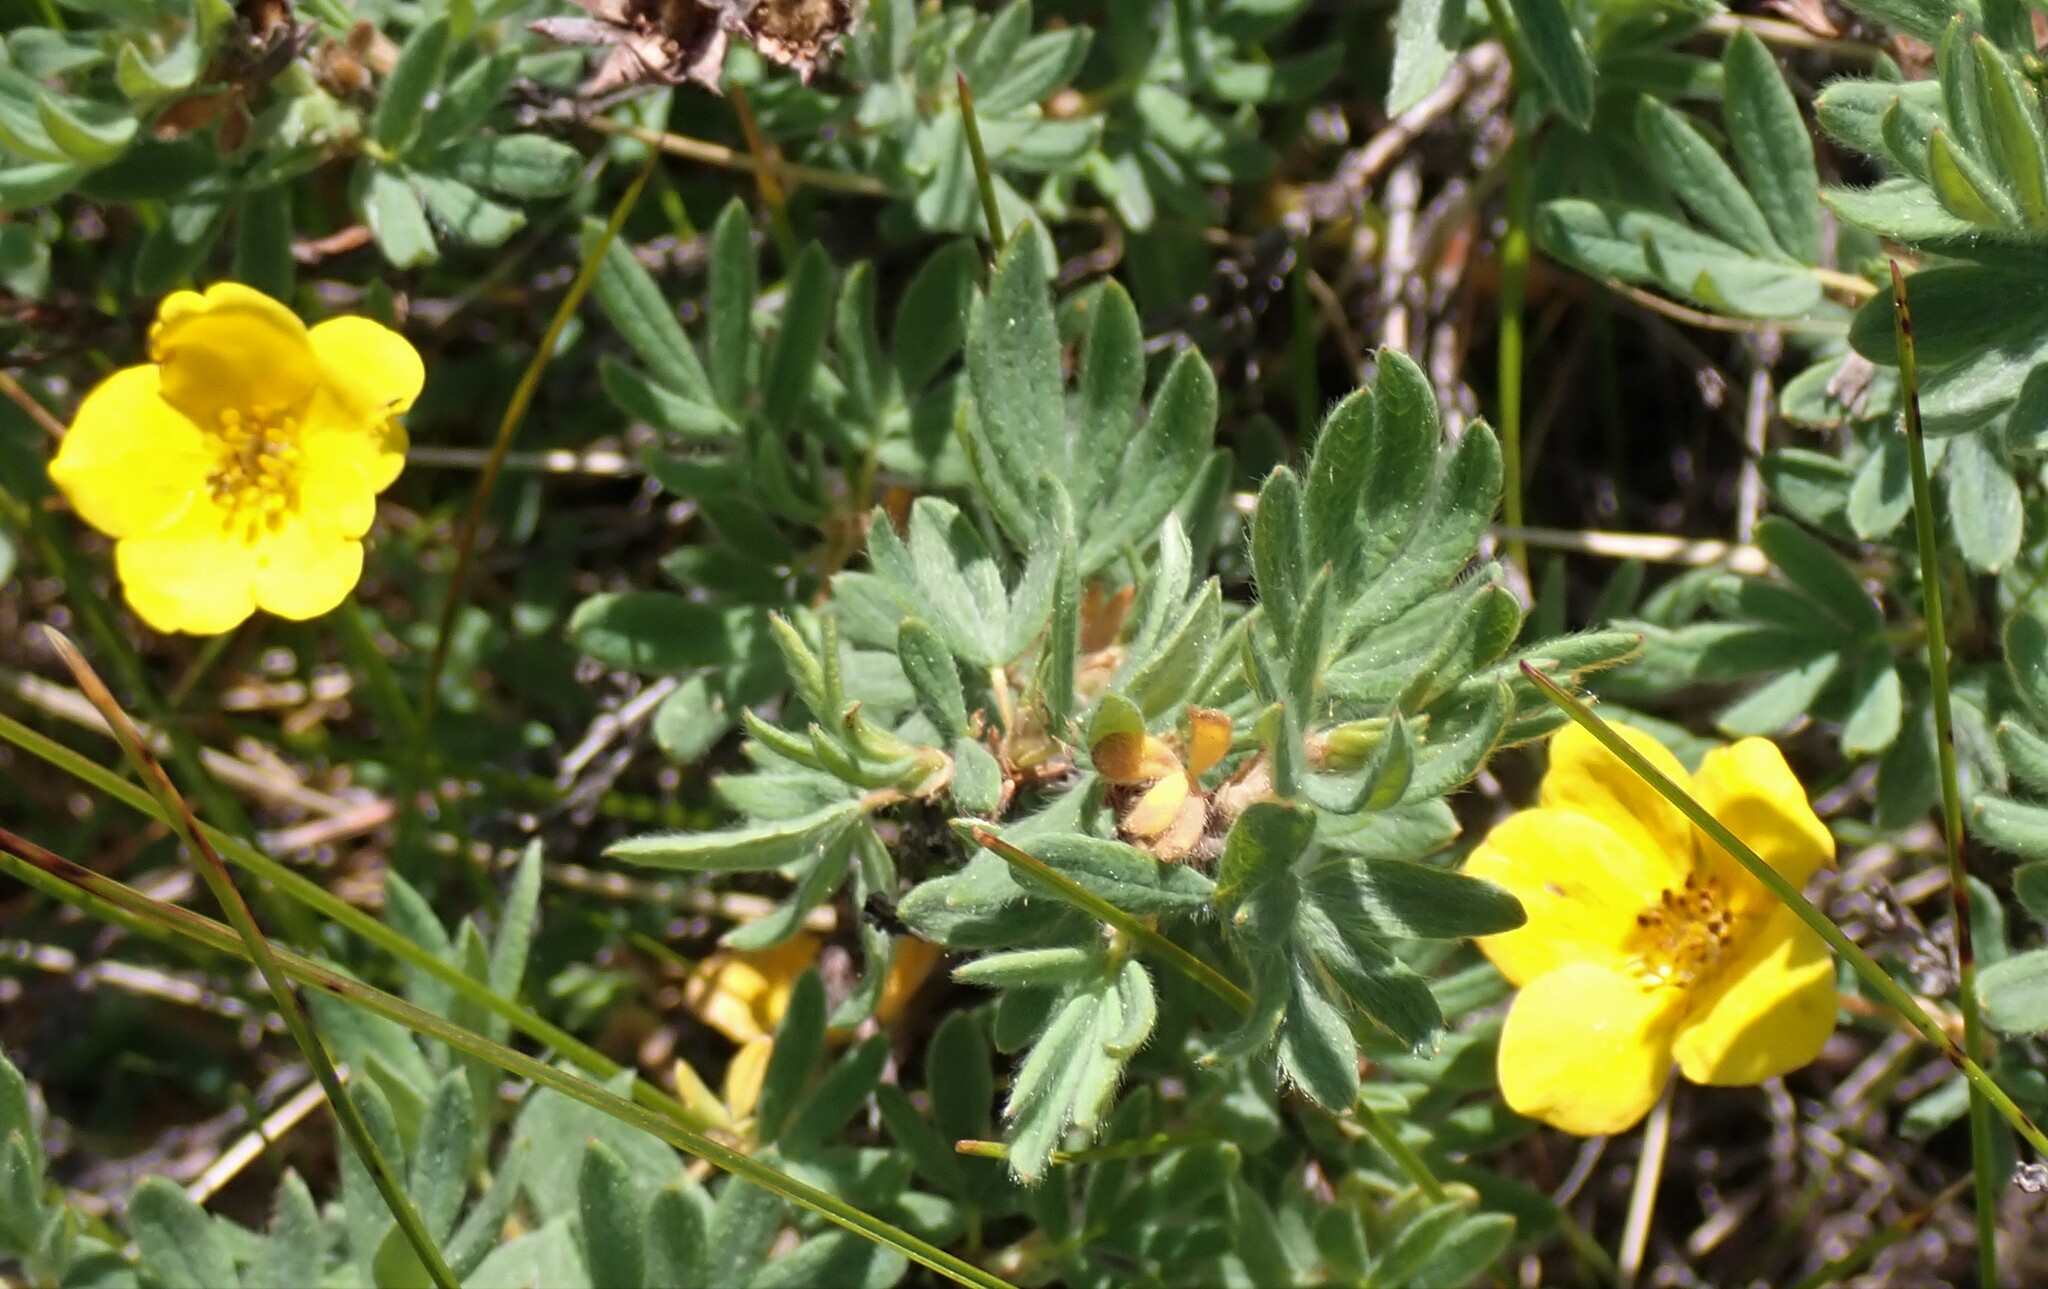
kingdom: Plantae
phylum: Tracheophyta
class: Magnoliopsida
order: Rosales
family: Rosaceae
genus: Dasiphora
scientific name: Dasiphora fruticosa
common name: Shrubby cinquefoil
